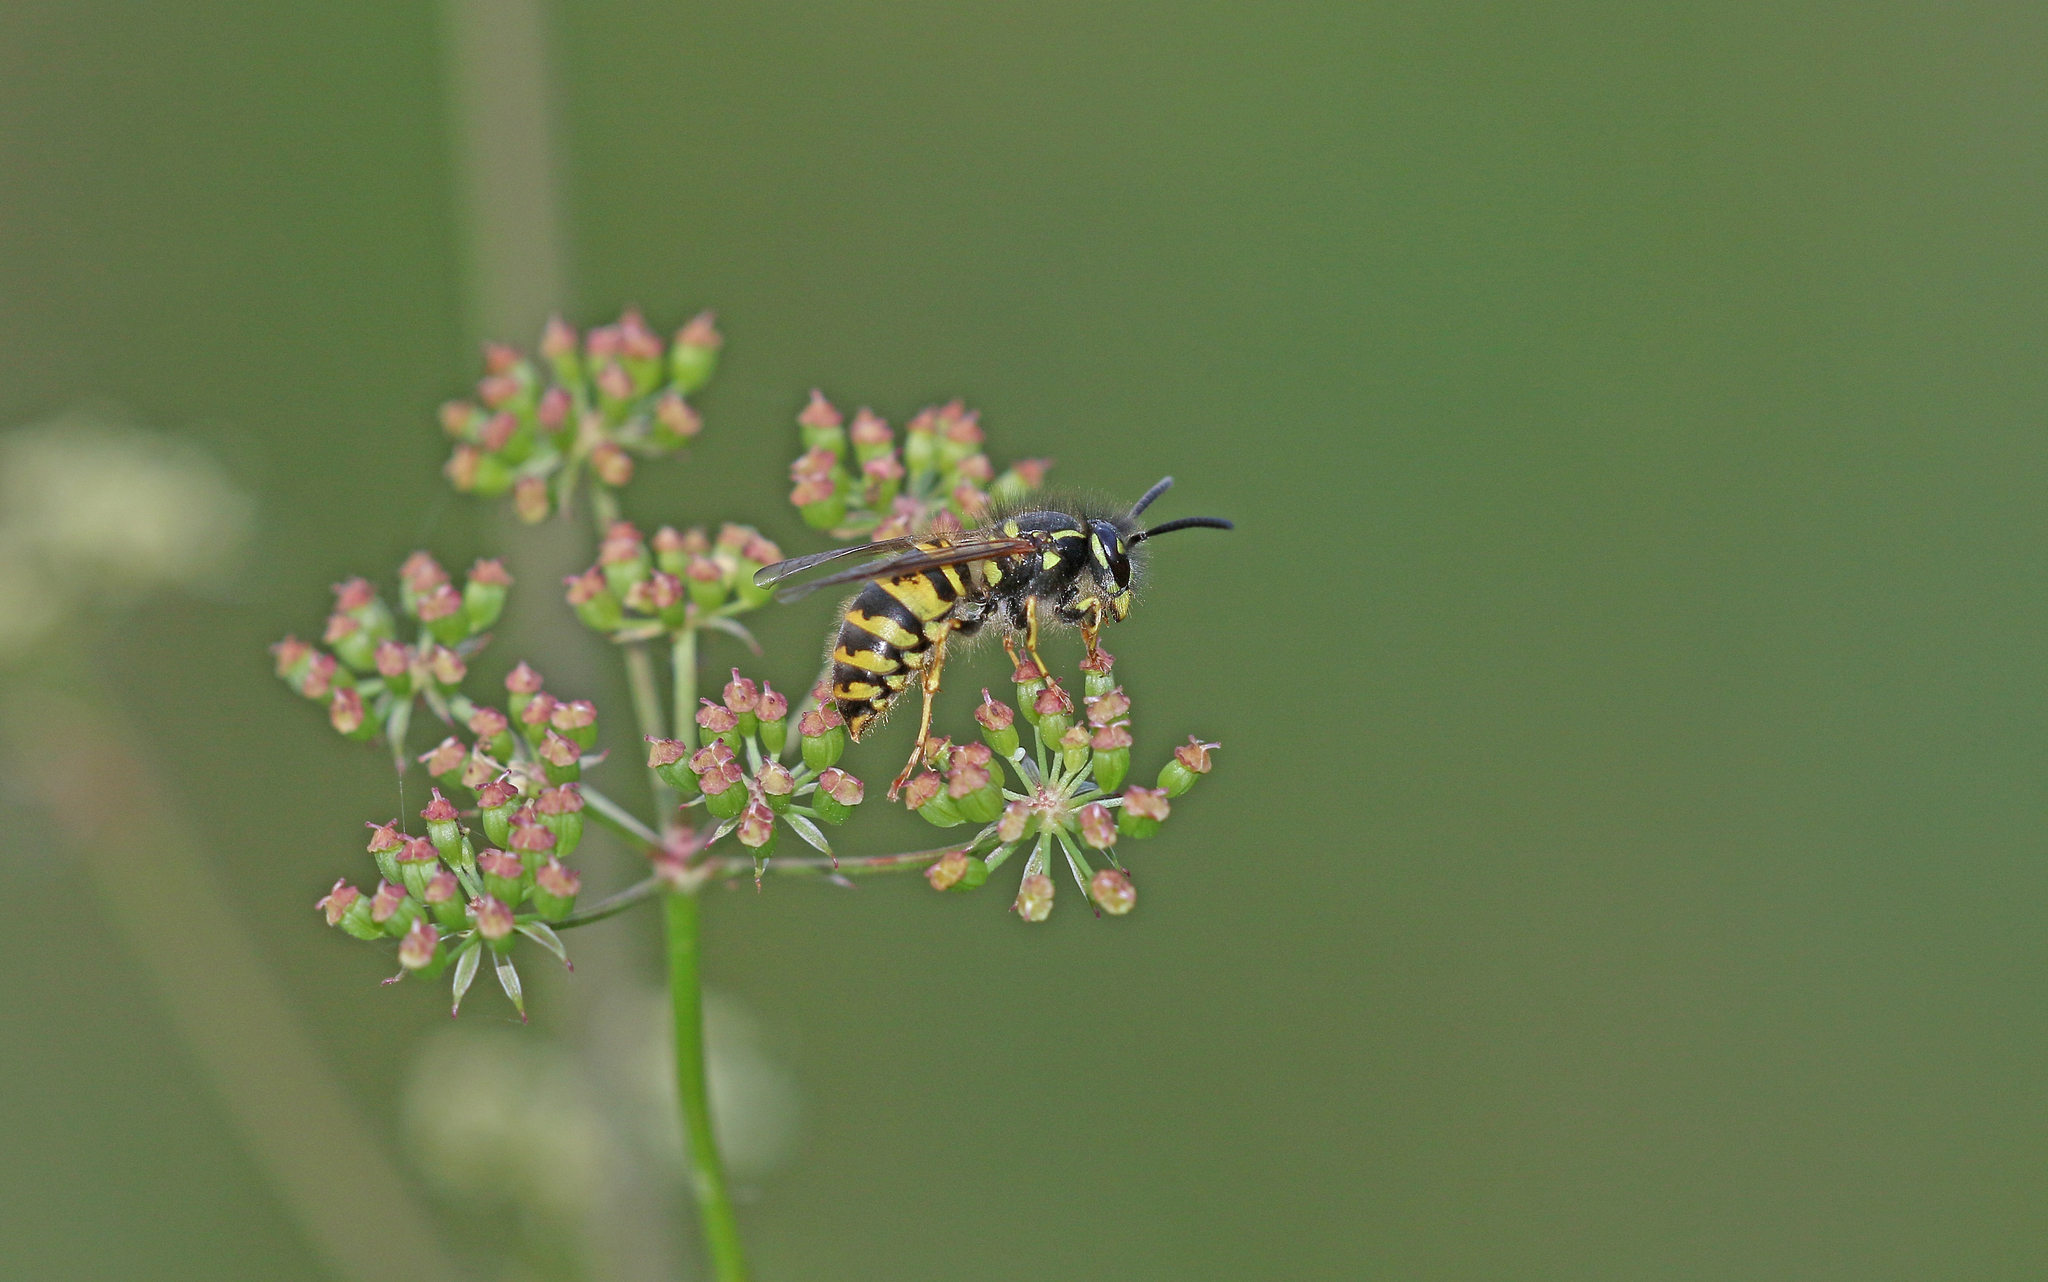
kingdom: Animalia
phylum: Arthropoda
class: Insecta
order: Hymenoptera
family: Vespidae
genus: Vespula
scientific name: Vespula vulgaris
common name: Common wasp
